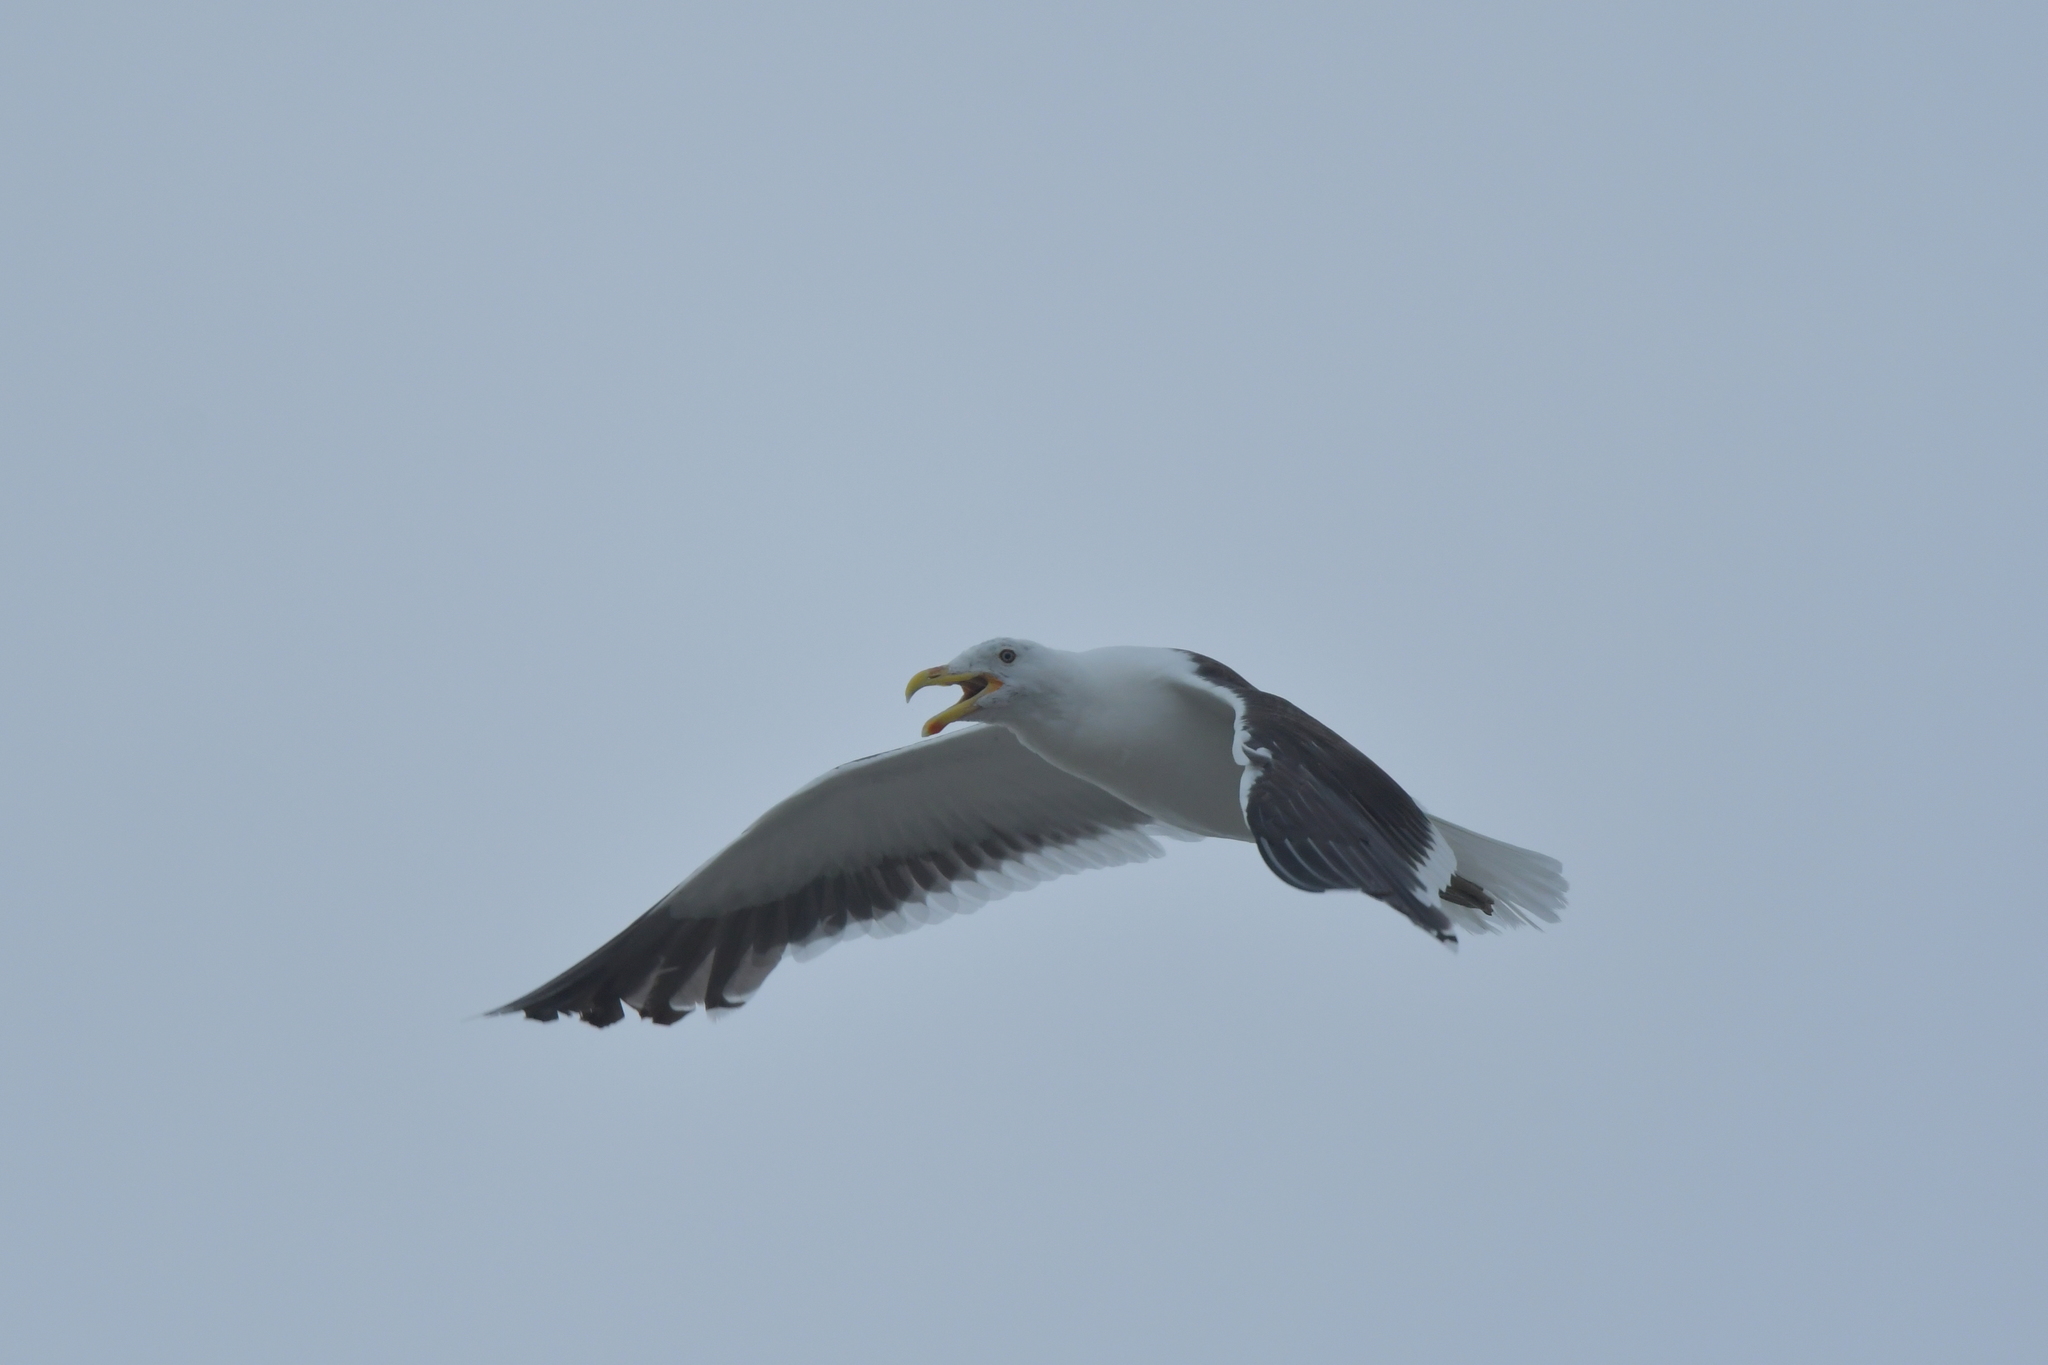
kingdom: Animalia
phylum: Chordata
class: Aves
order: Charadriiformes
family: Laridae
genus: Larus
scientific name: Larus dominicanus
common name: Kelp gull
